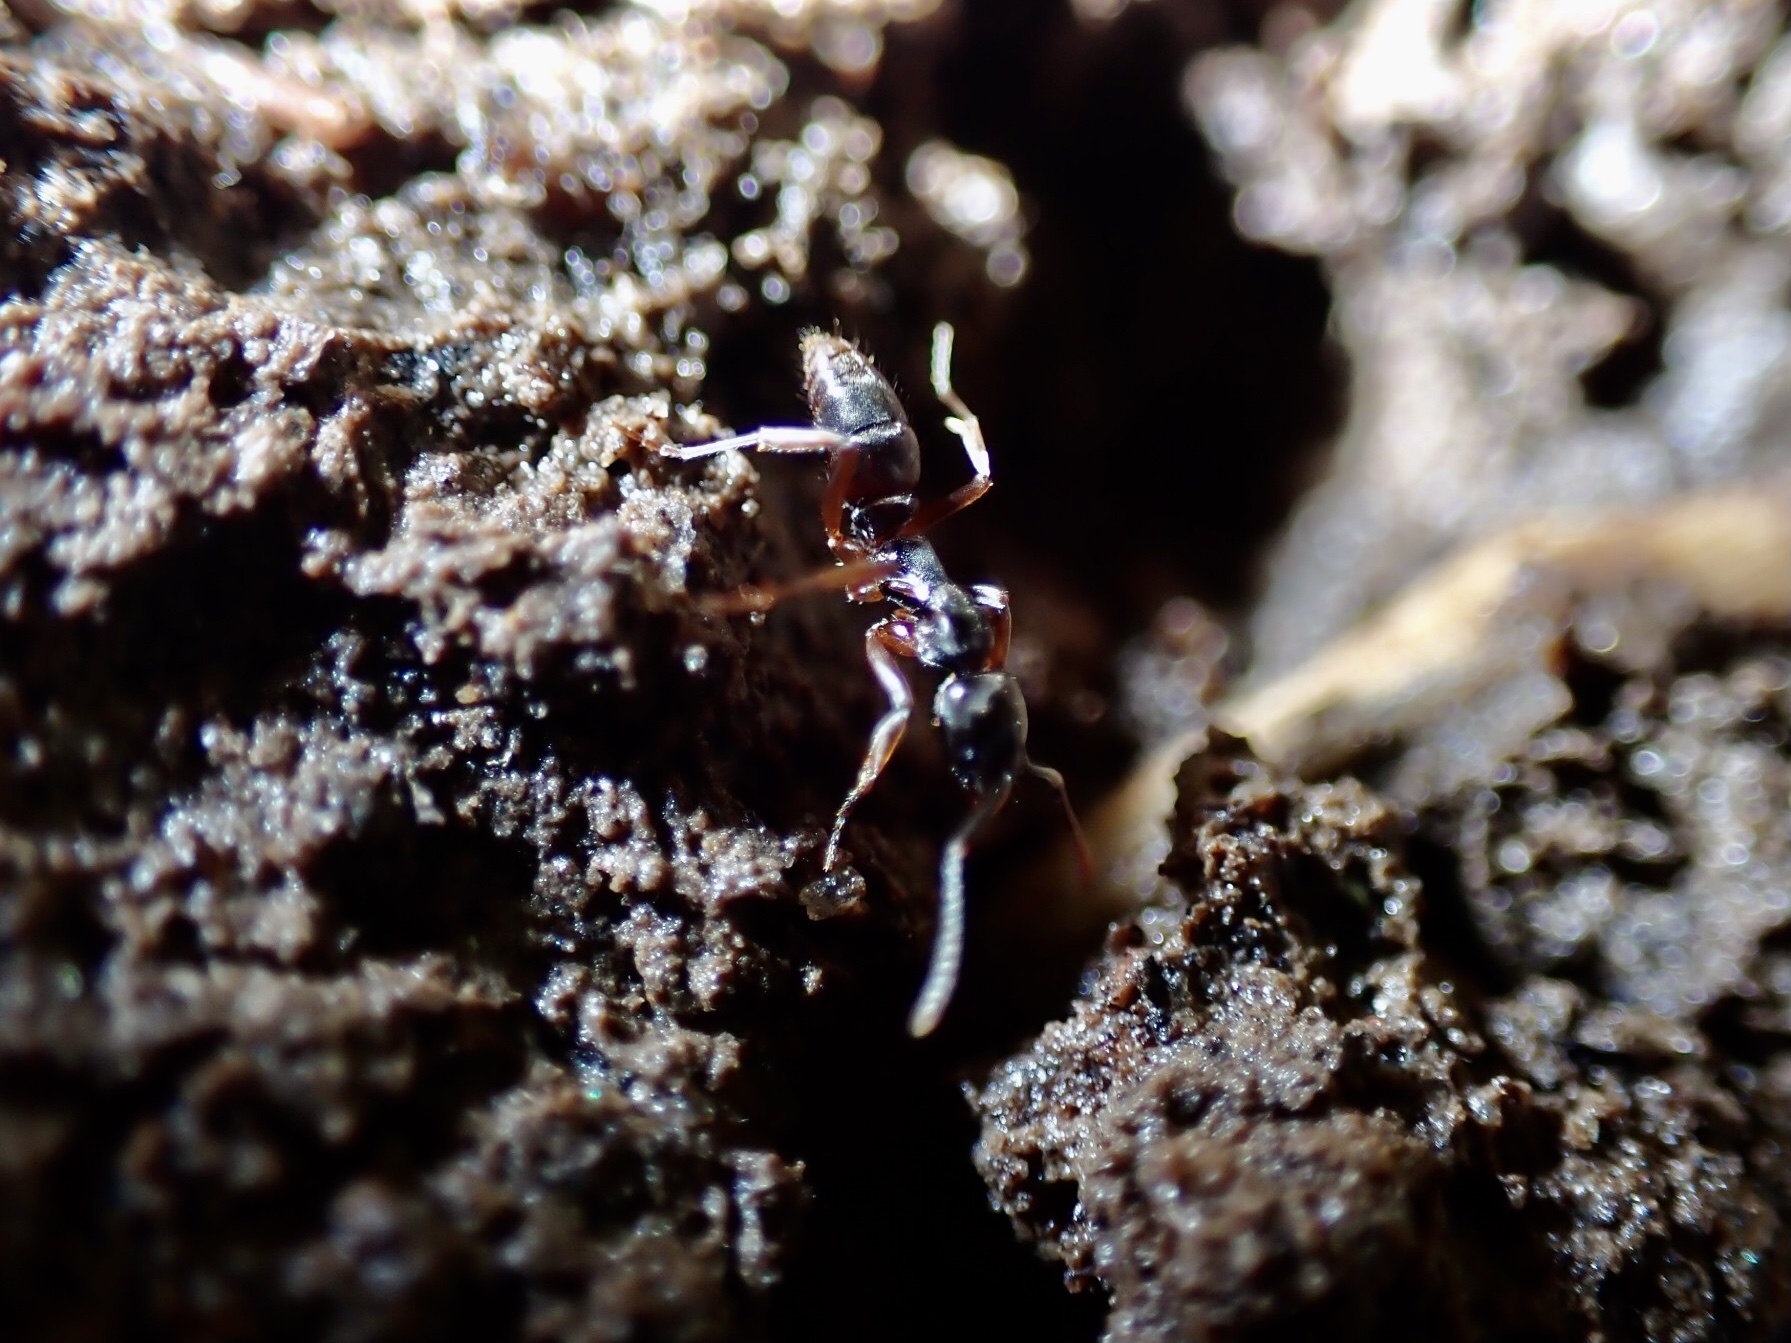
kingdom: Animalia
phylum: Arthropoda
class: Insecta
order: Hymenoptera
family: Formicidae
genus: Pachycondyla
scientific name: Pachycondyla chinensis
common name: Asian needle ant
